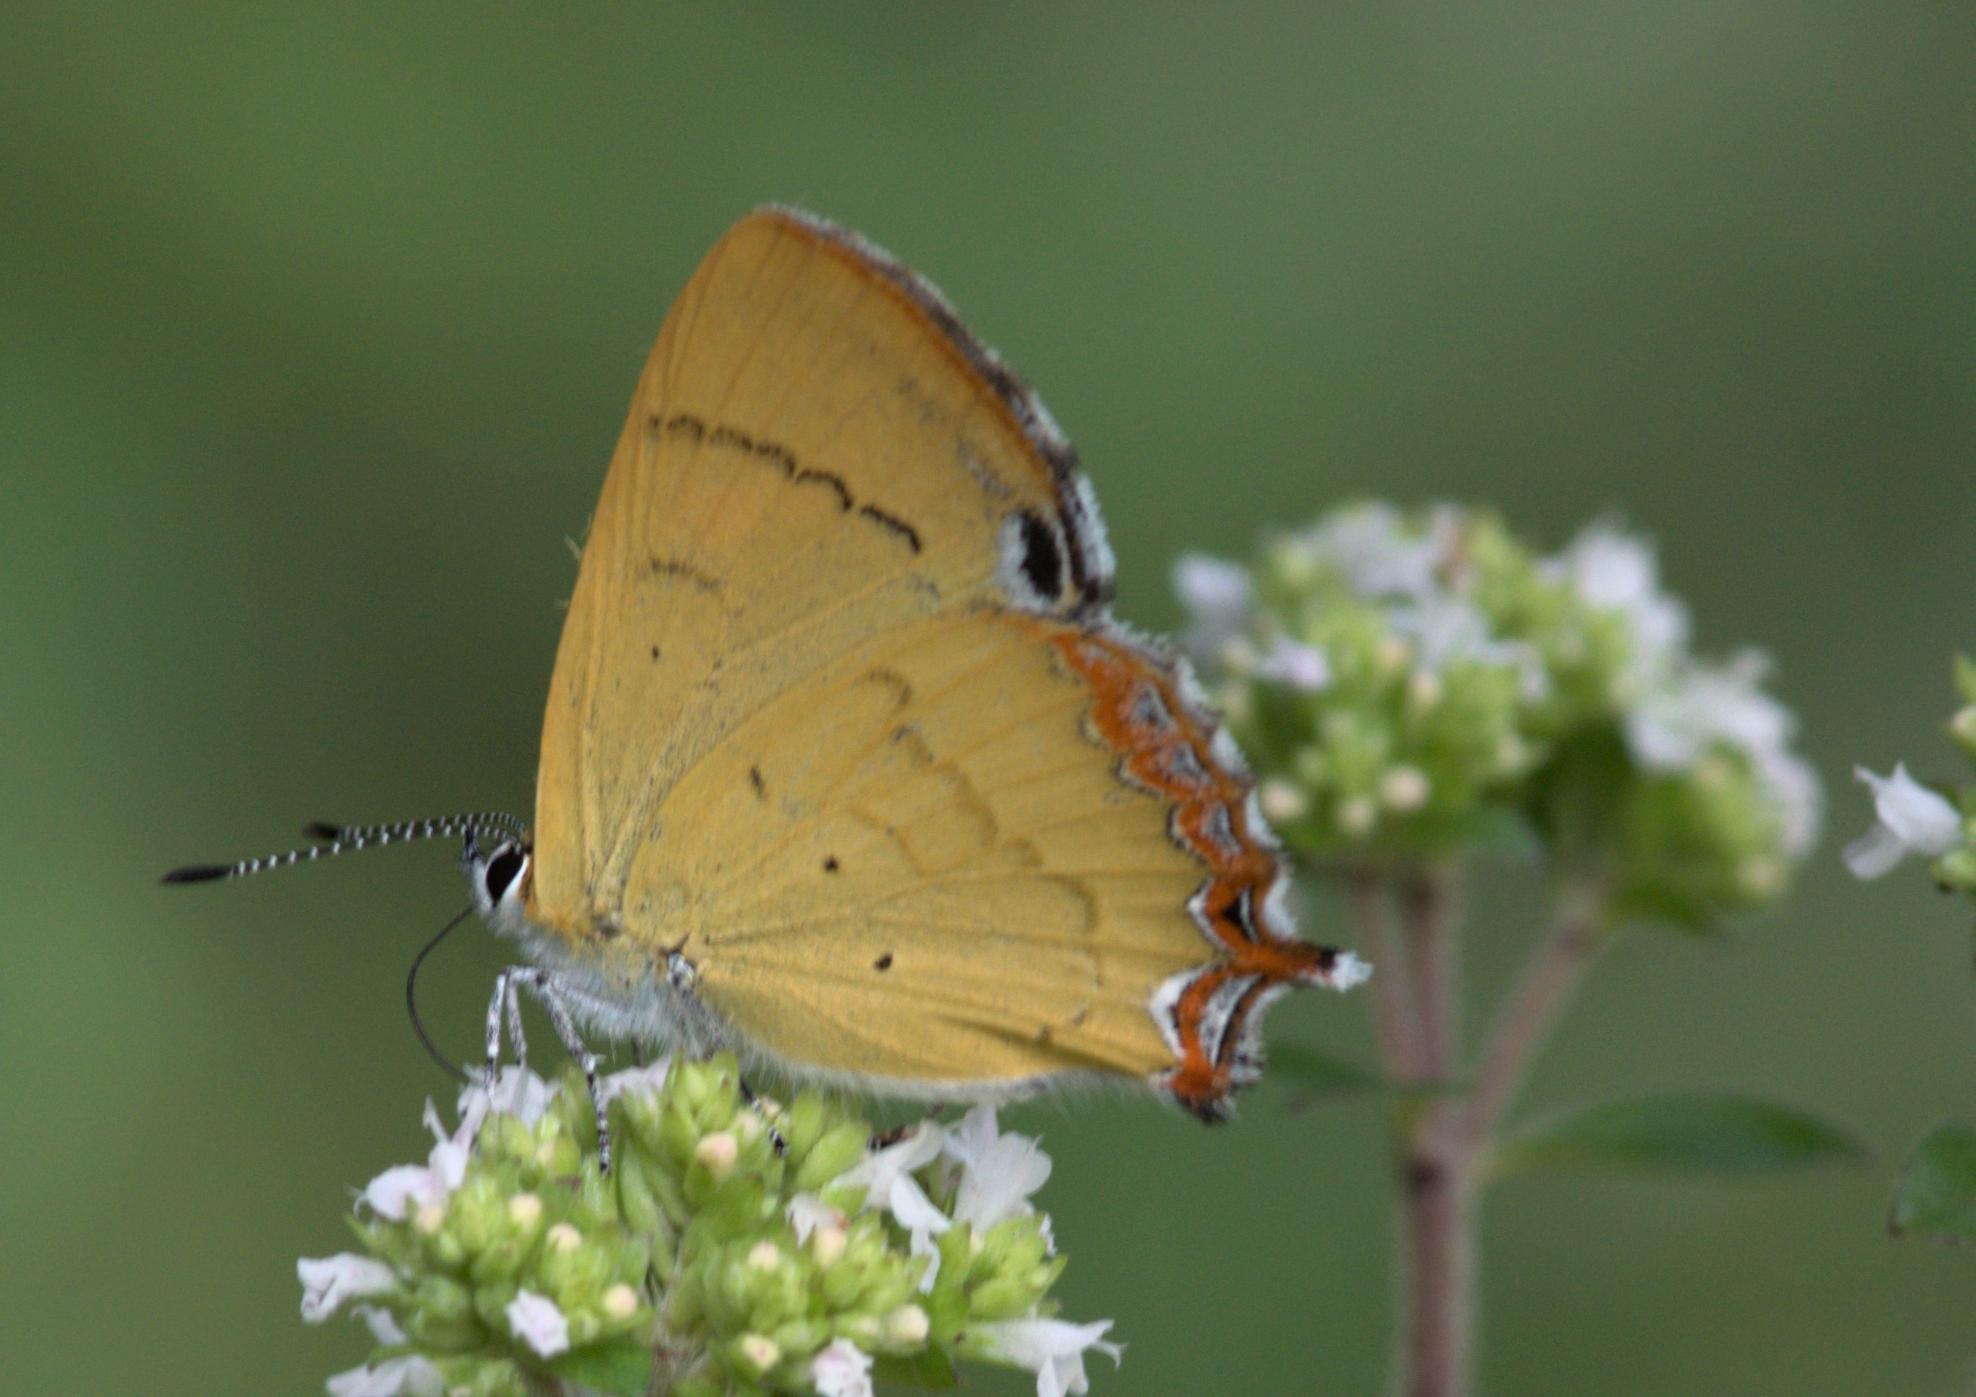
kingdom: Animalia
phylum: Arthropoda
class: Insecta
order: Lepidoptera
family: Lycaenidae
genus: Heliophorus
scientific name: Heliophorus
